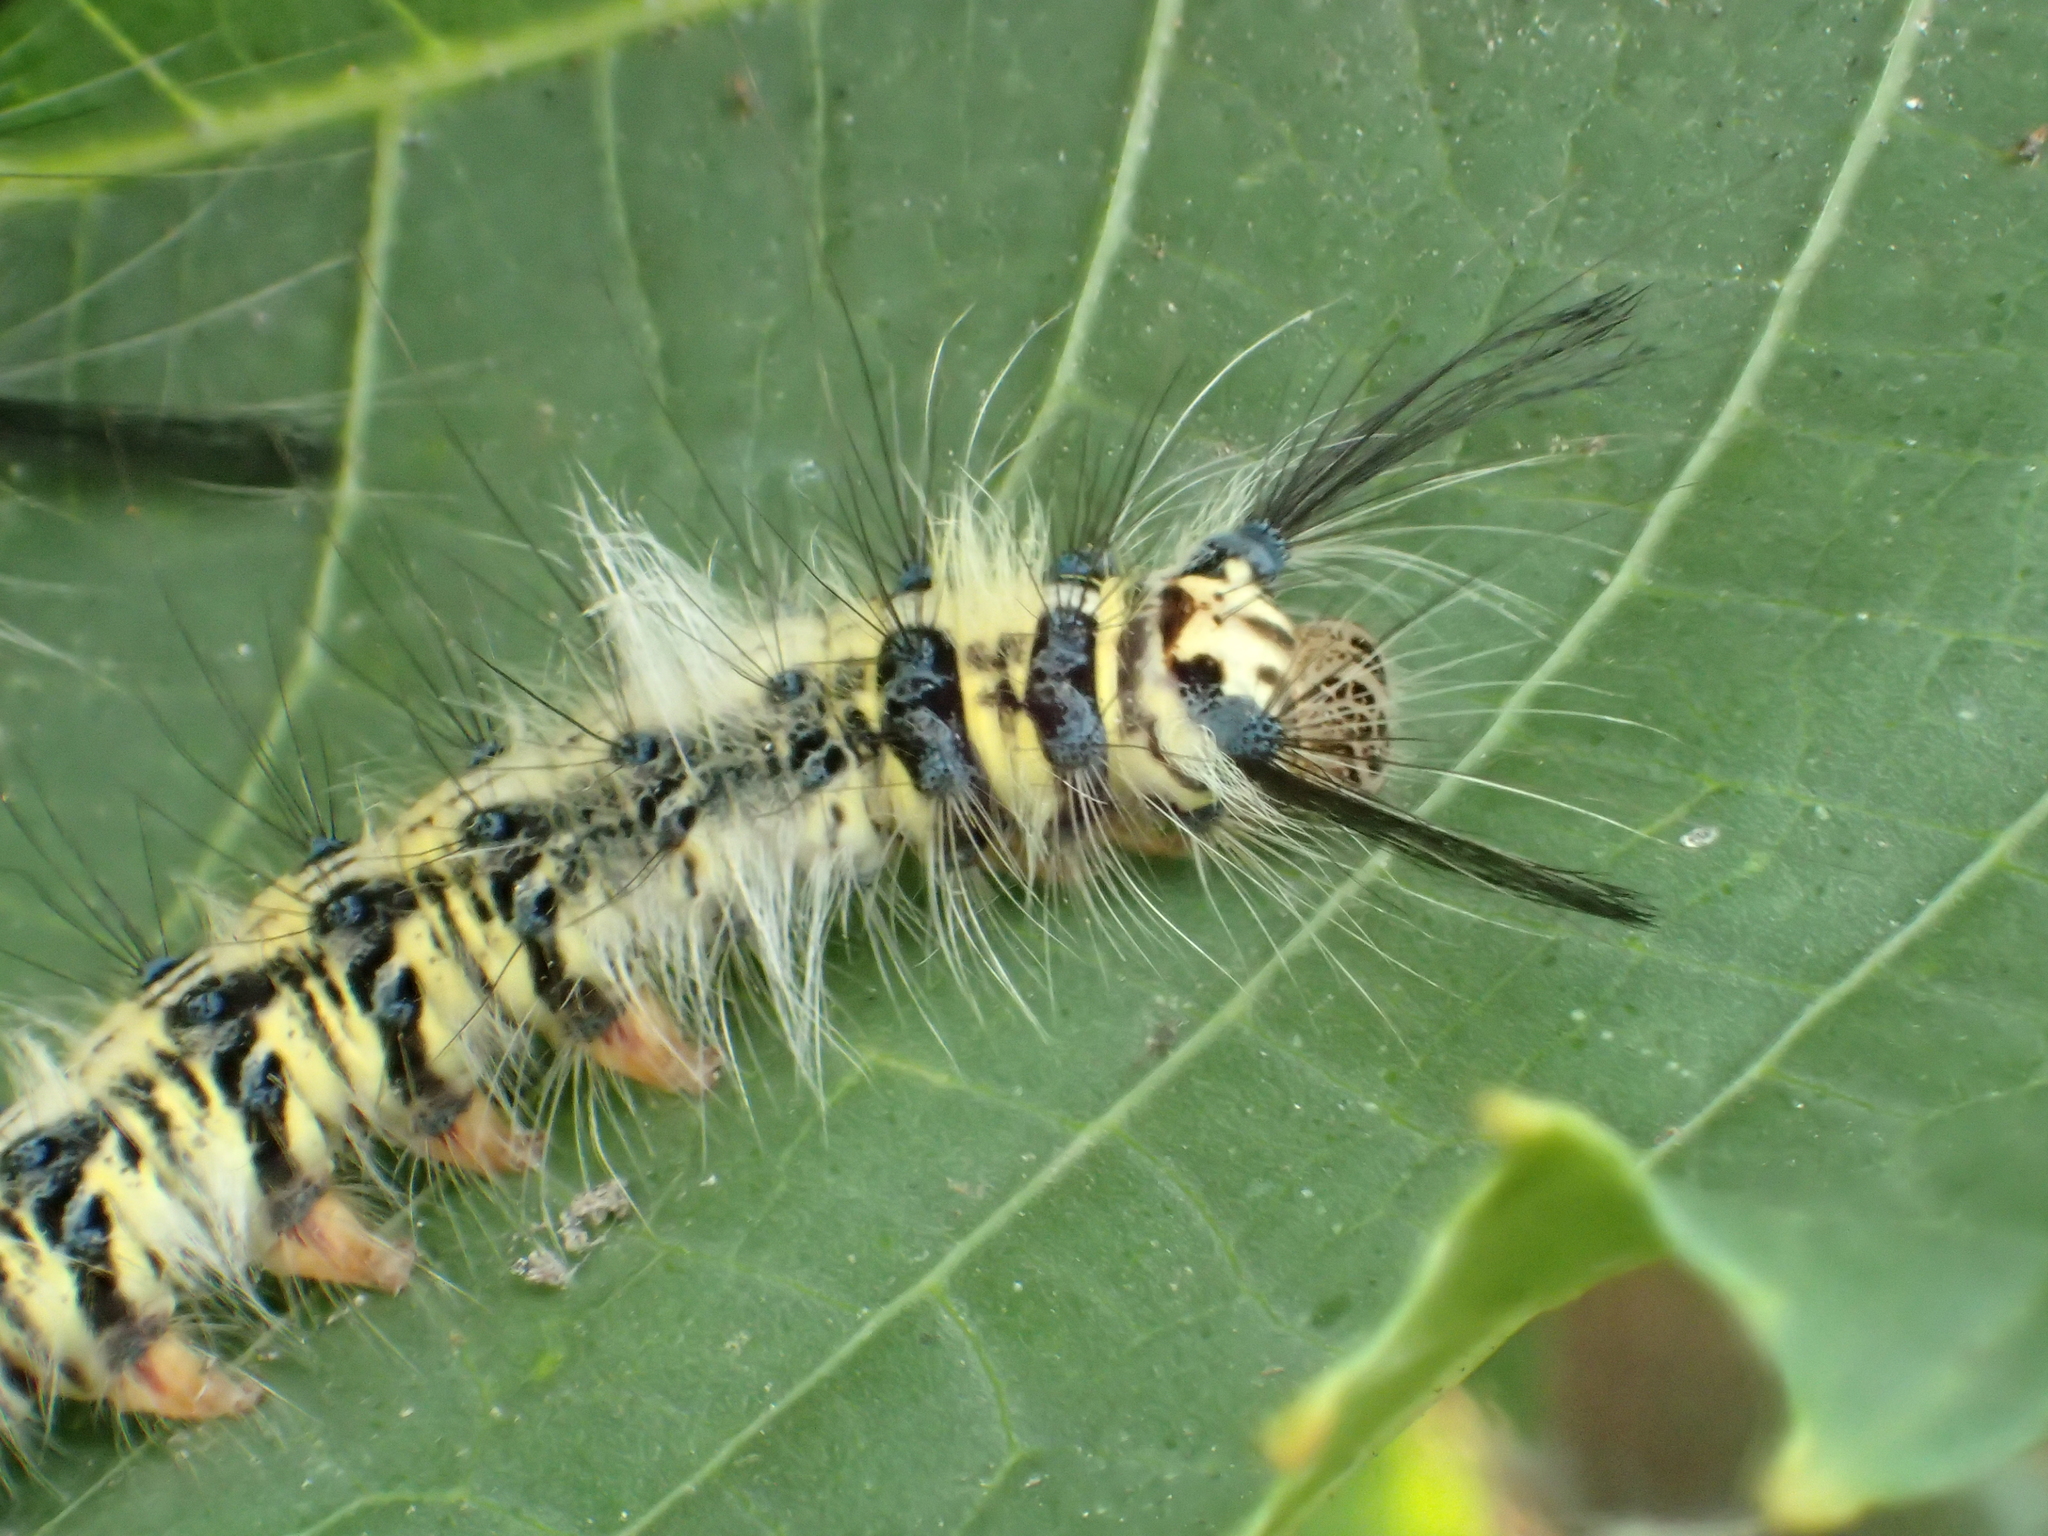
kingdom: Animalia
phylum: Arthropoda
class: Insecta
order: Lepidoptera
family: Lasiocampidae
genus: Trabala
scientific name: Trabala vishnou
